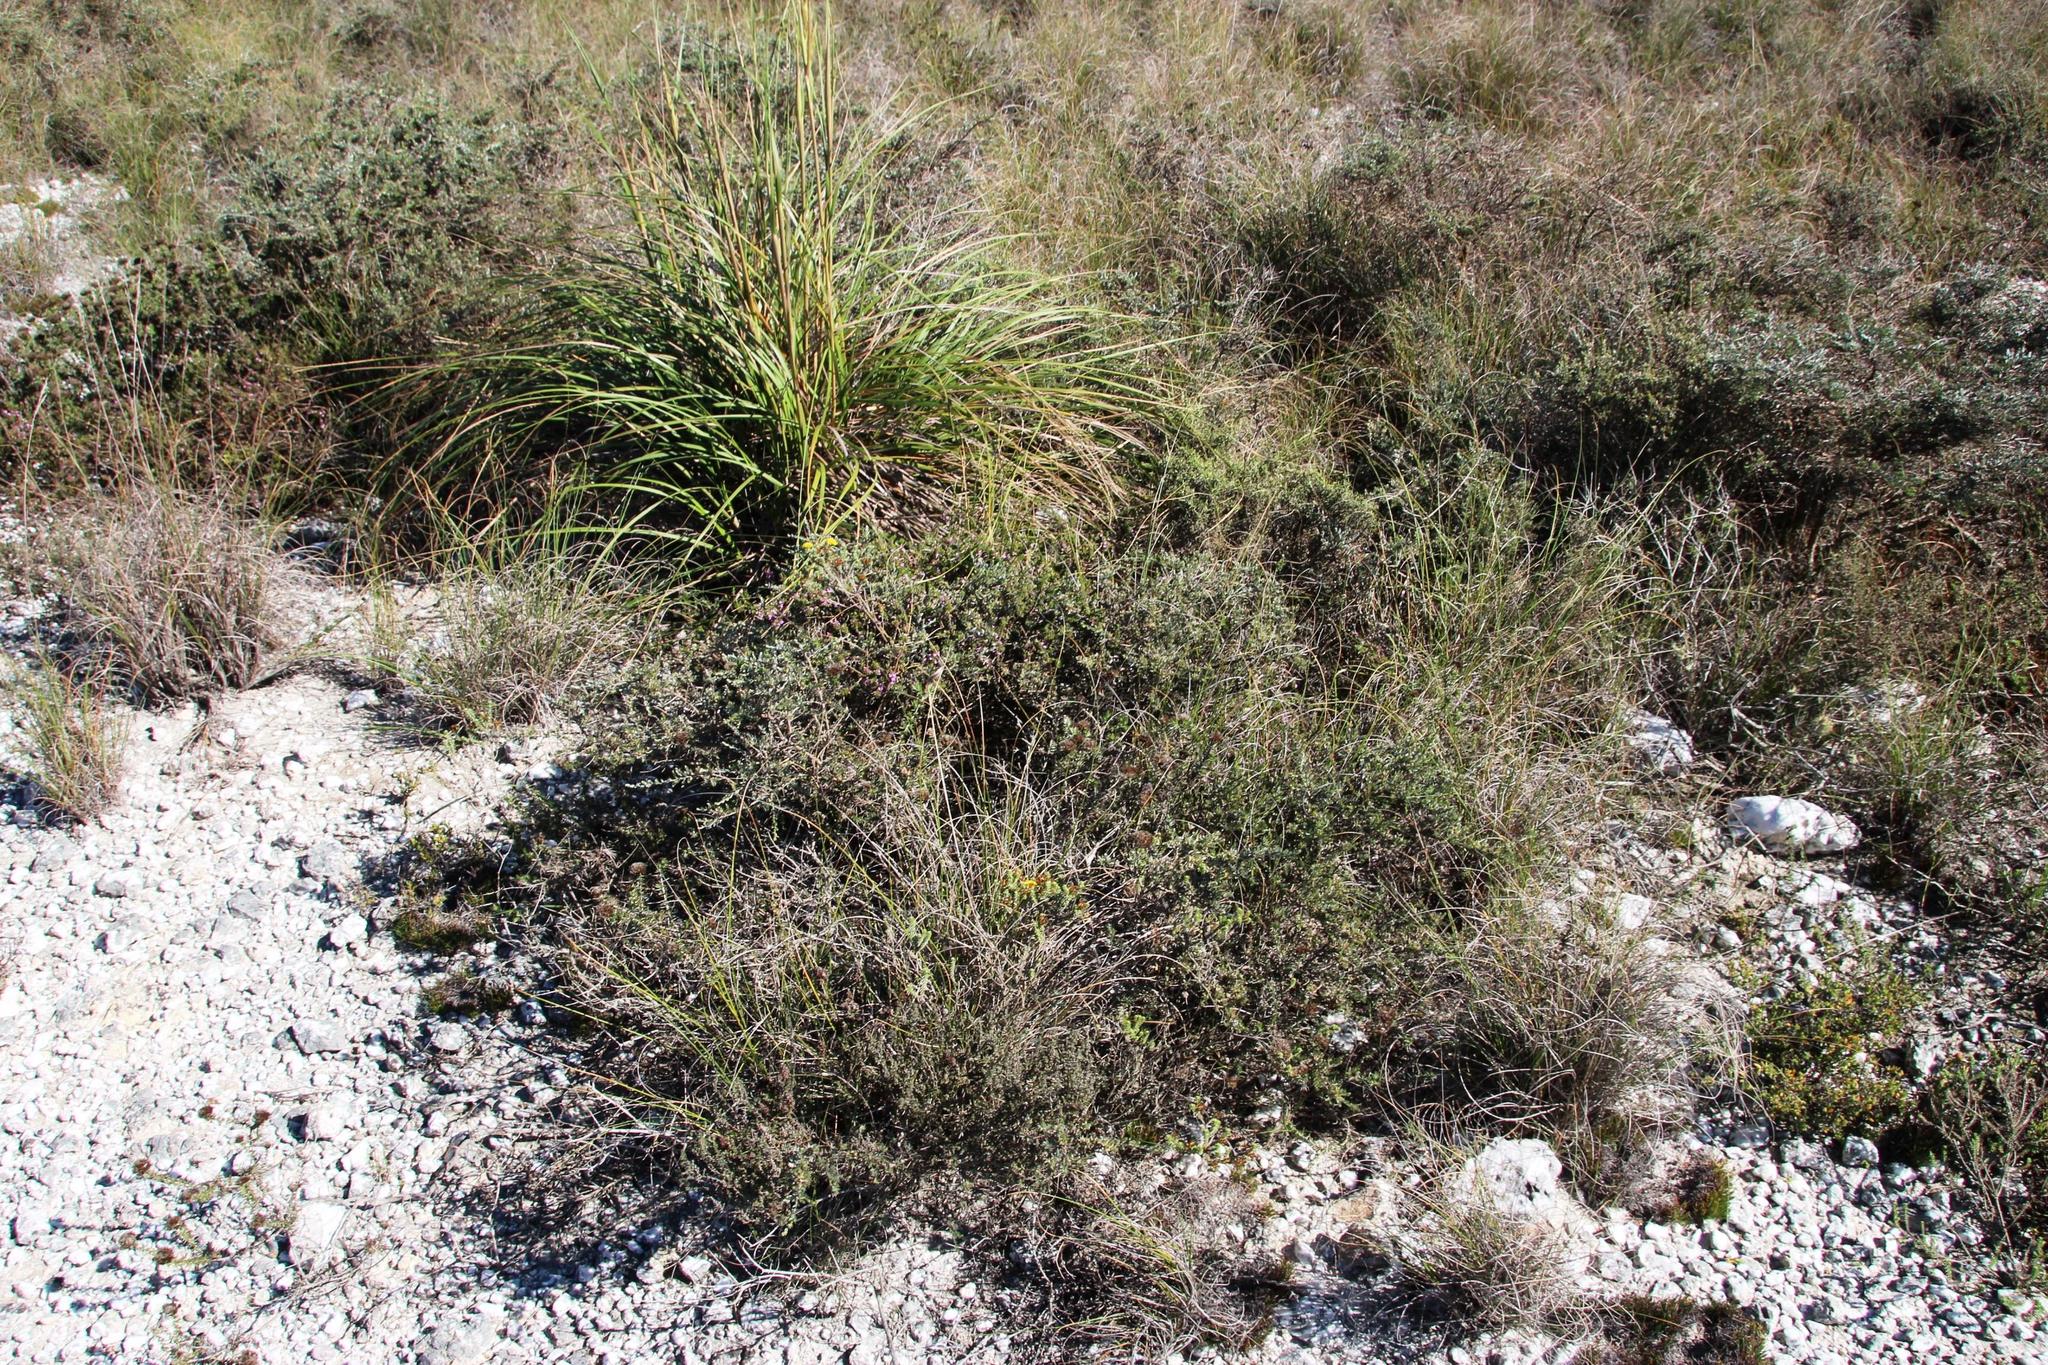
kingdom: Plantae
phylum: Tracheophyta
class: Magnoliopsida
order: Fabales
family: Polygalaceae
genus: Muraltia
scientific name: Muraltia rhamnoides
